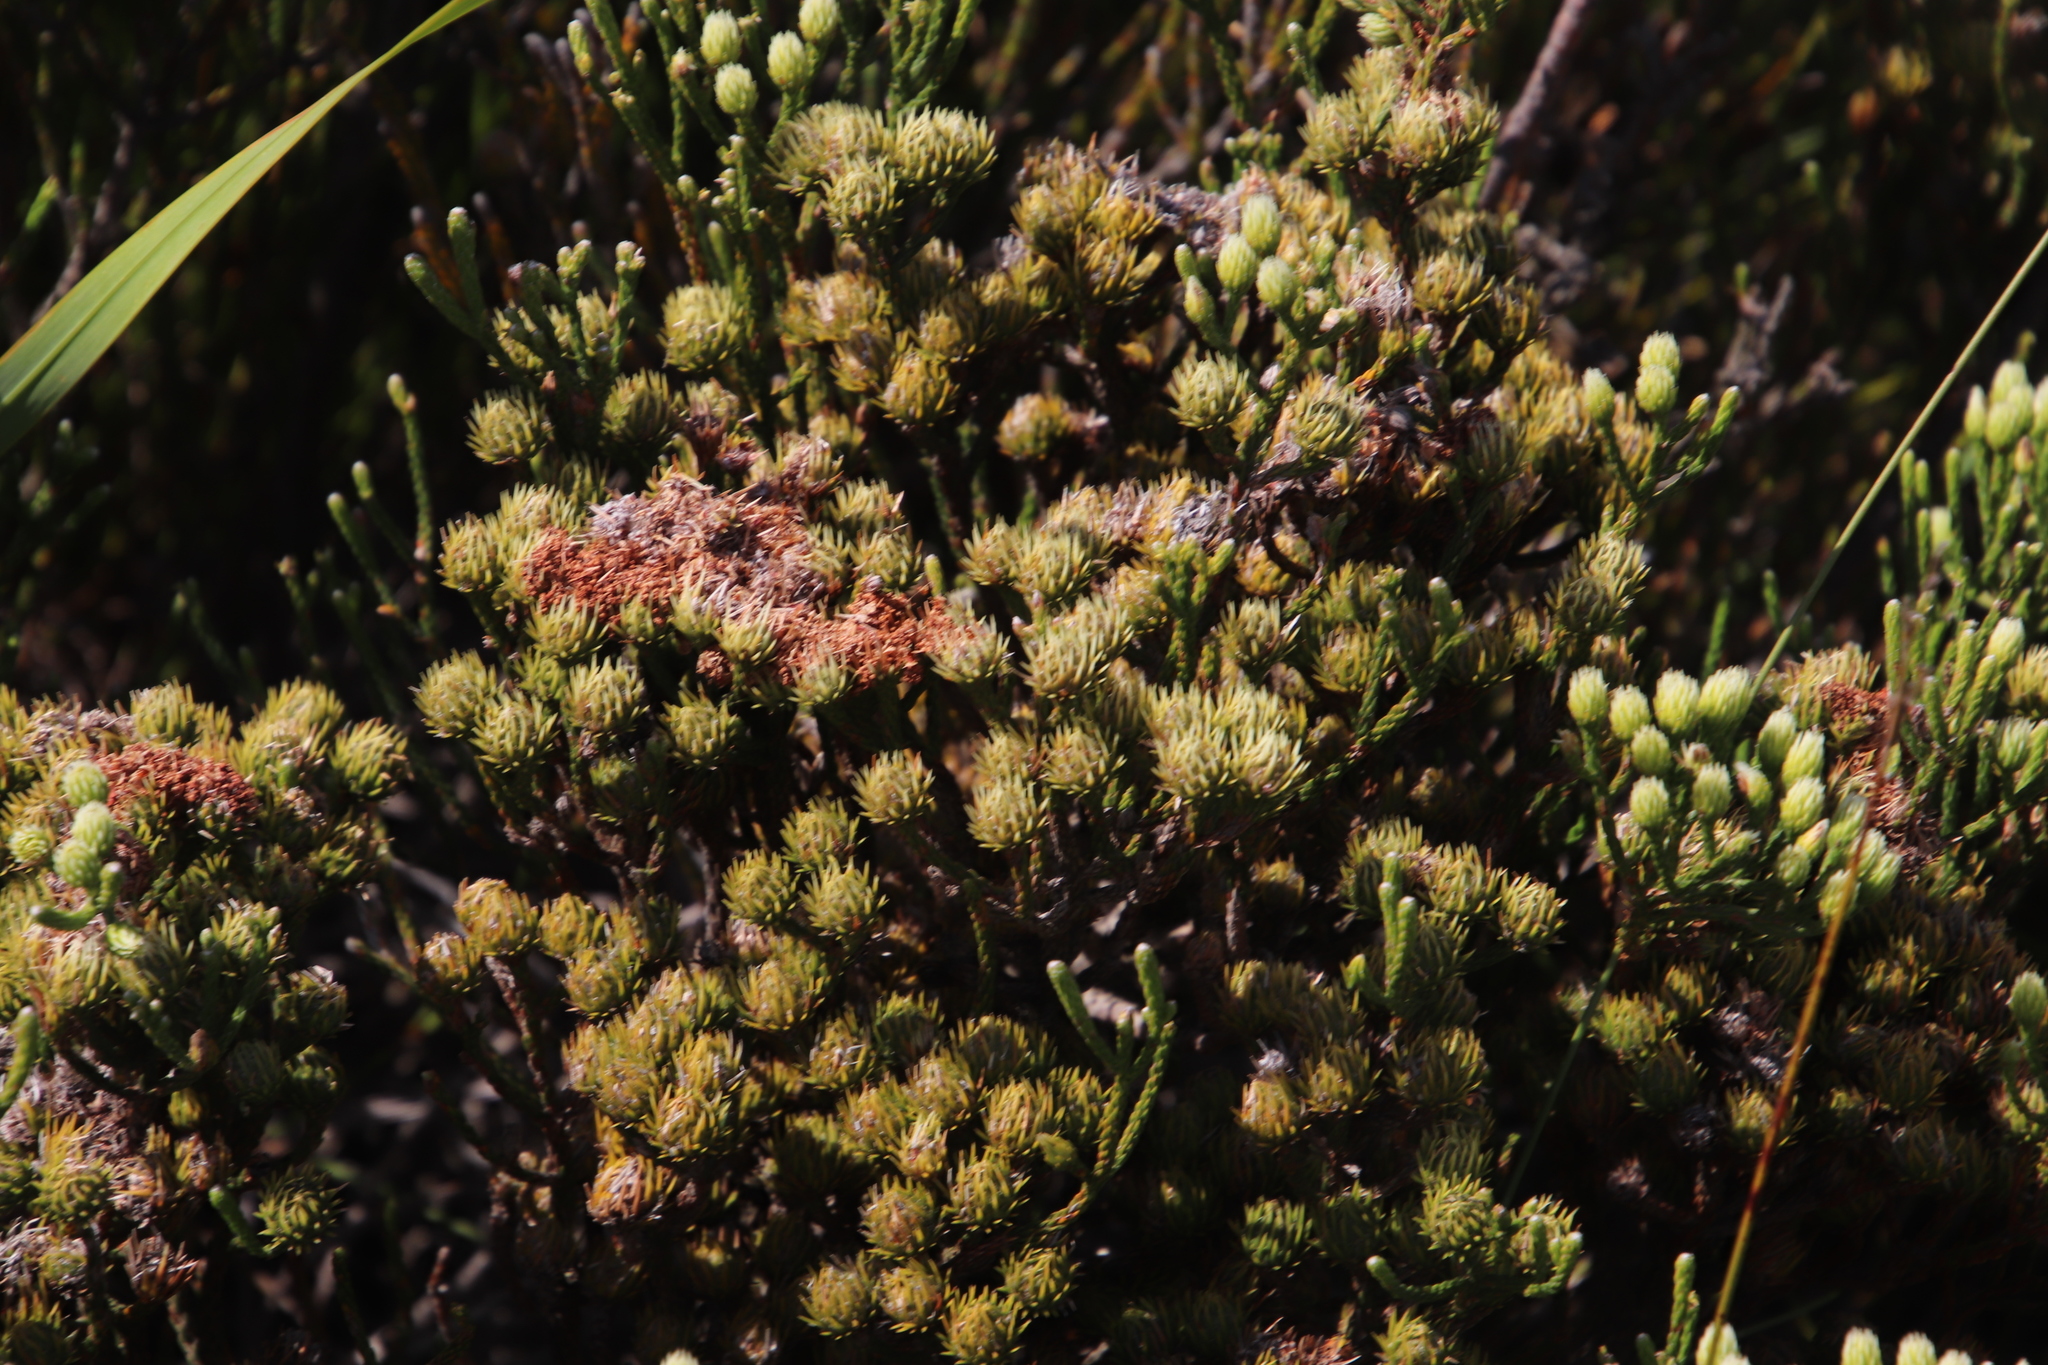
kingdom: Plantae
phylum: Tracheophyta
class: Magnoliopsida
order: Bruniales
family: Bruniaceae
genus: Brunia
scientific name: Brunia paleacea
